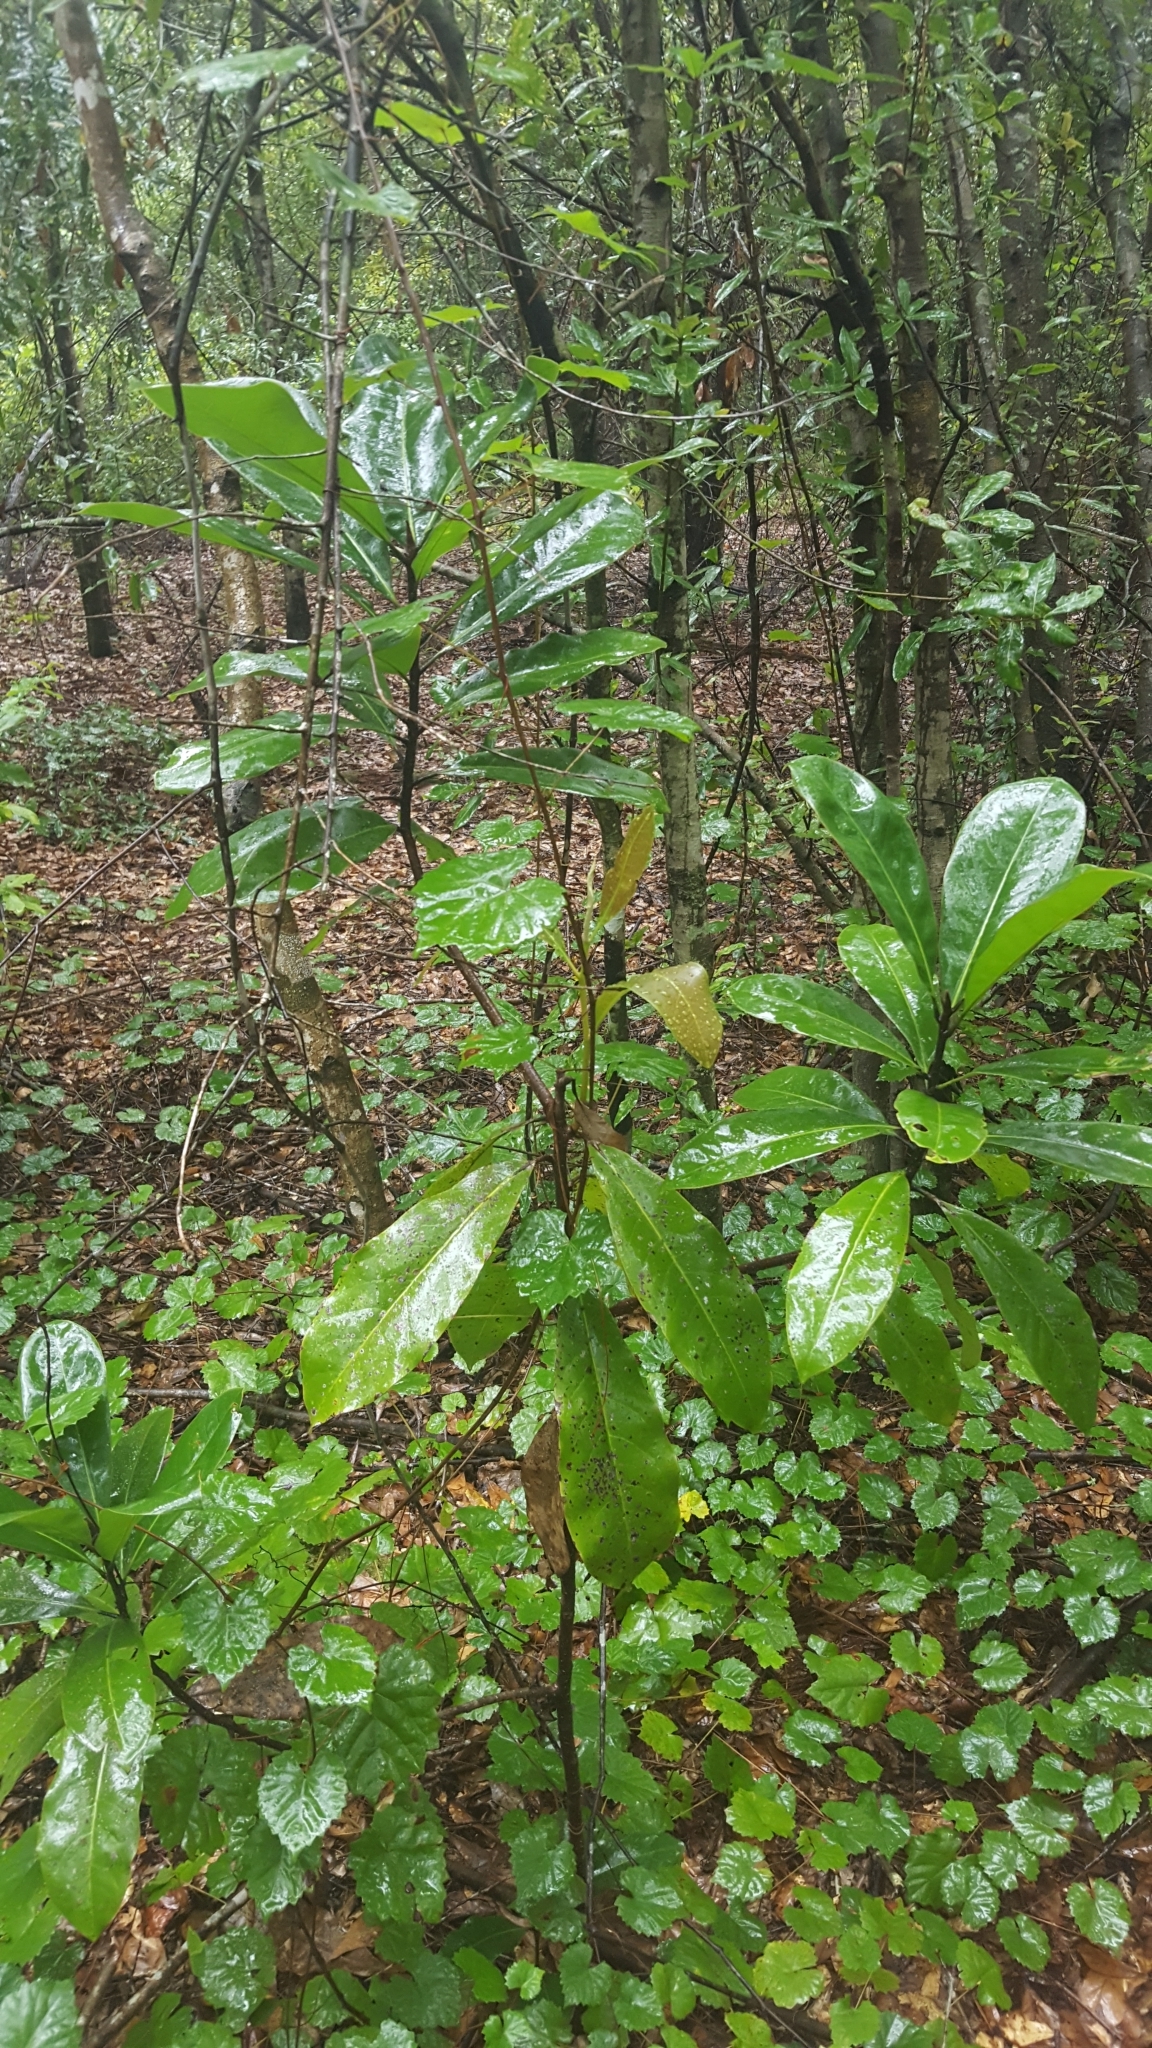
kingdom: Plantae
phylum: Tracheophyta
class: Magnoliopsida
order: Magnoliales
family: Magnoliaceae
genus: Magnolia
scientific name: Magnolia grandiflora
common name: Southern magnolia
